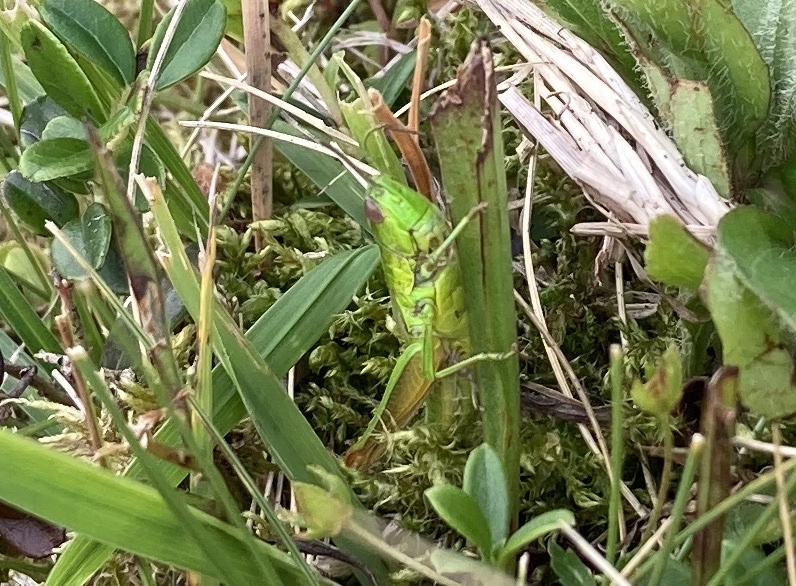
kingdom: Animalia
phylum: Arthropoda
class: Insecta
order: Orthoptera
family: Acrididae
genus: Euthystira
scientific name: Euthystira brachyptera
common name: Small gold grasshopper
